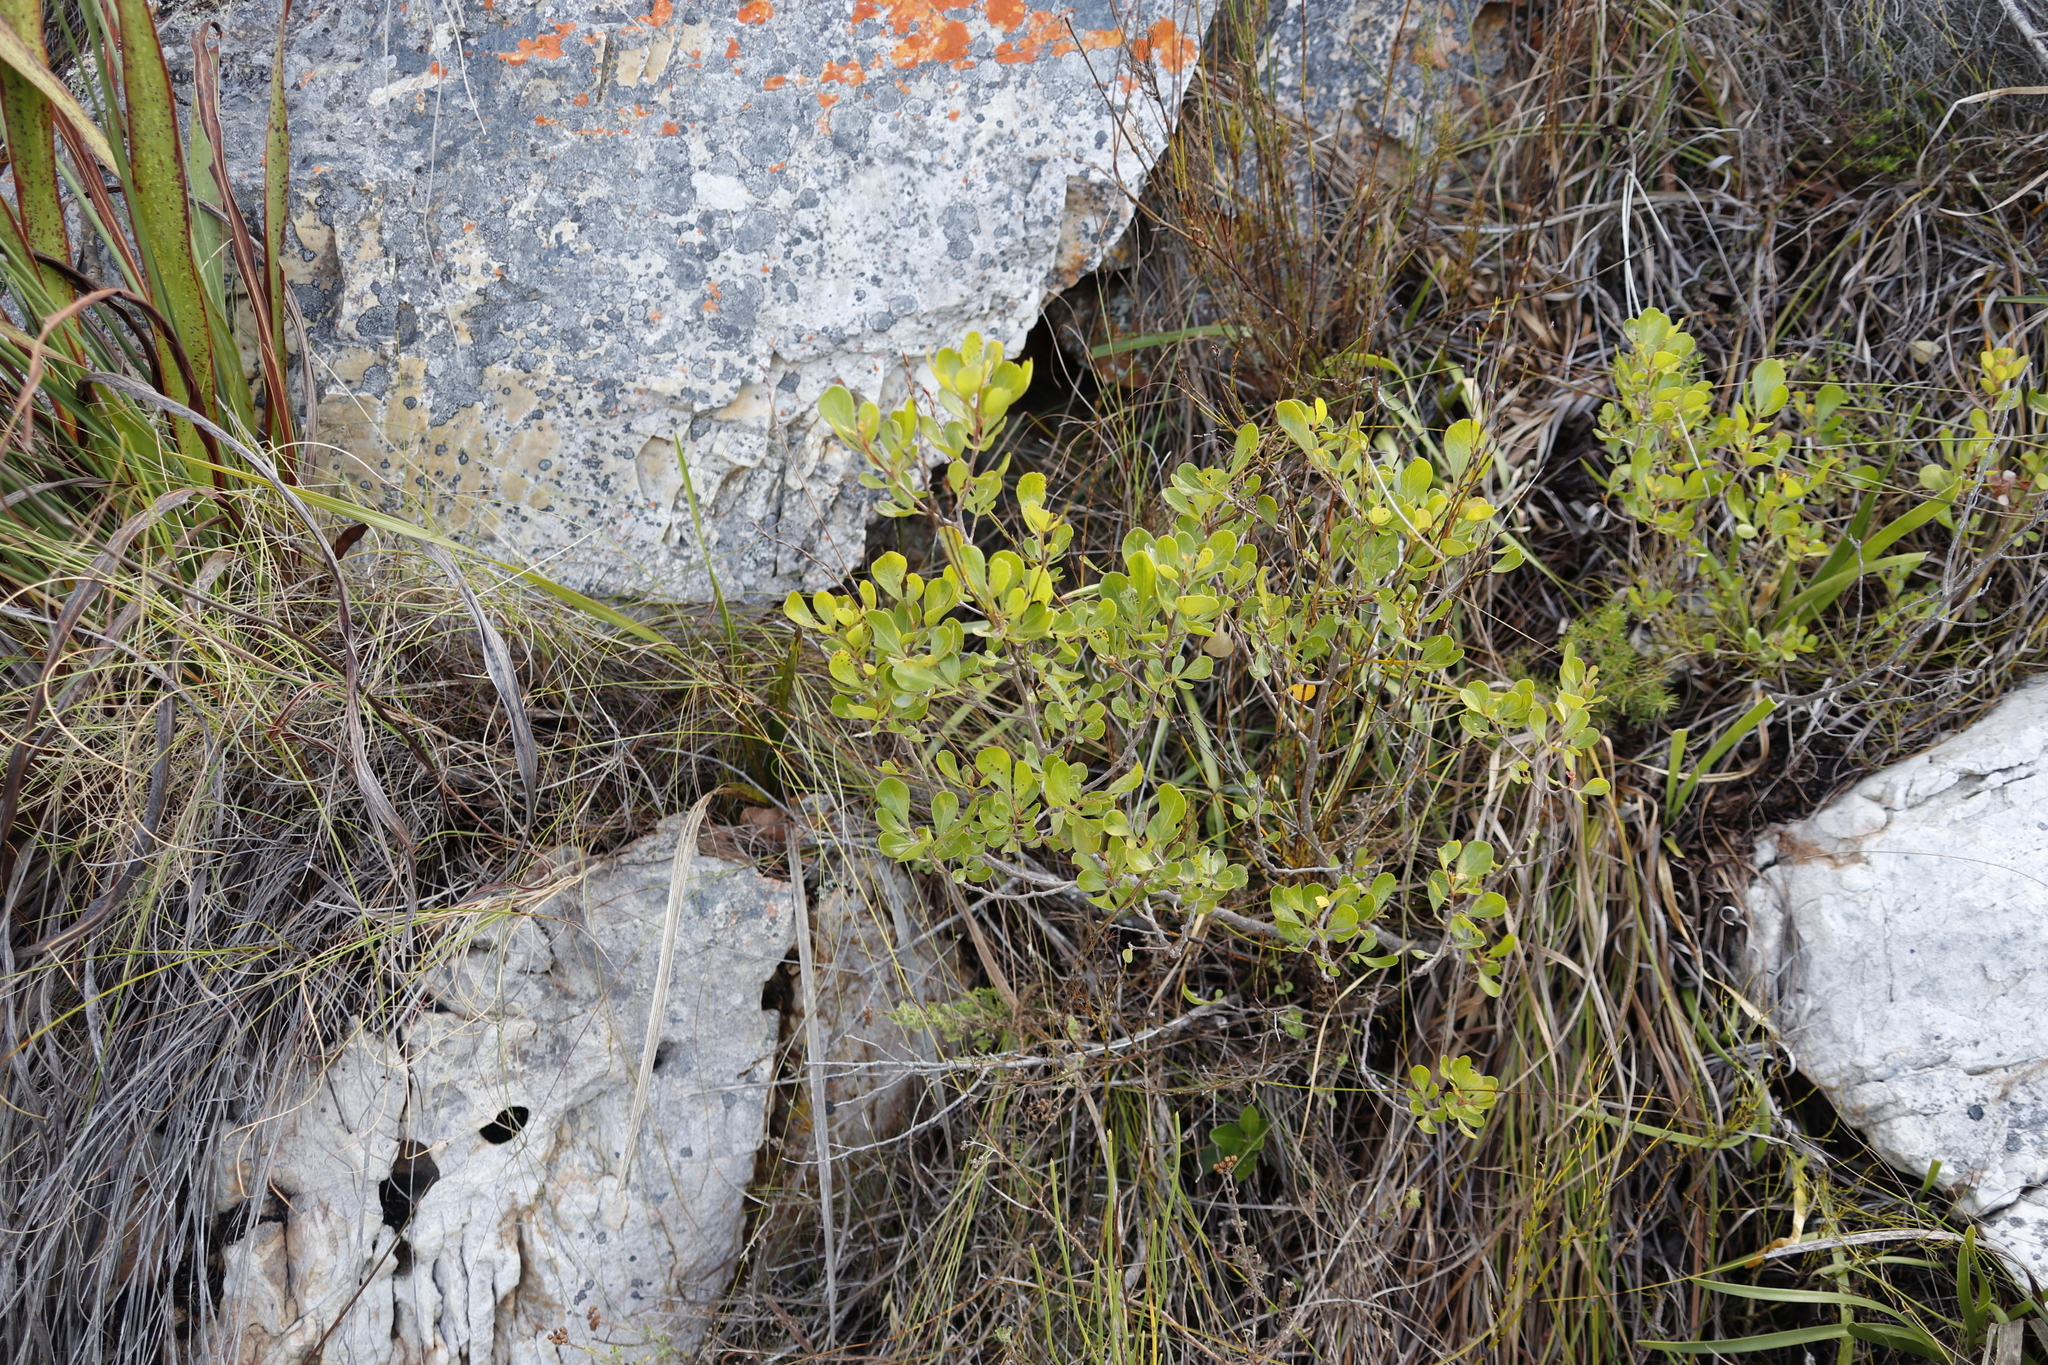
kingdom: Plantae
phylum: Tracheophyta
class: Magnoliopsida
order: Sapindales
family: Anacardiaceae
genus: Searsia
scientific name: Searsia lucida
